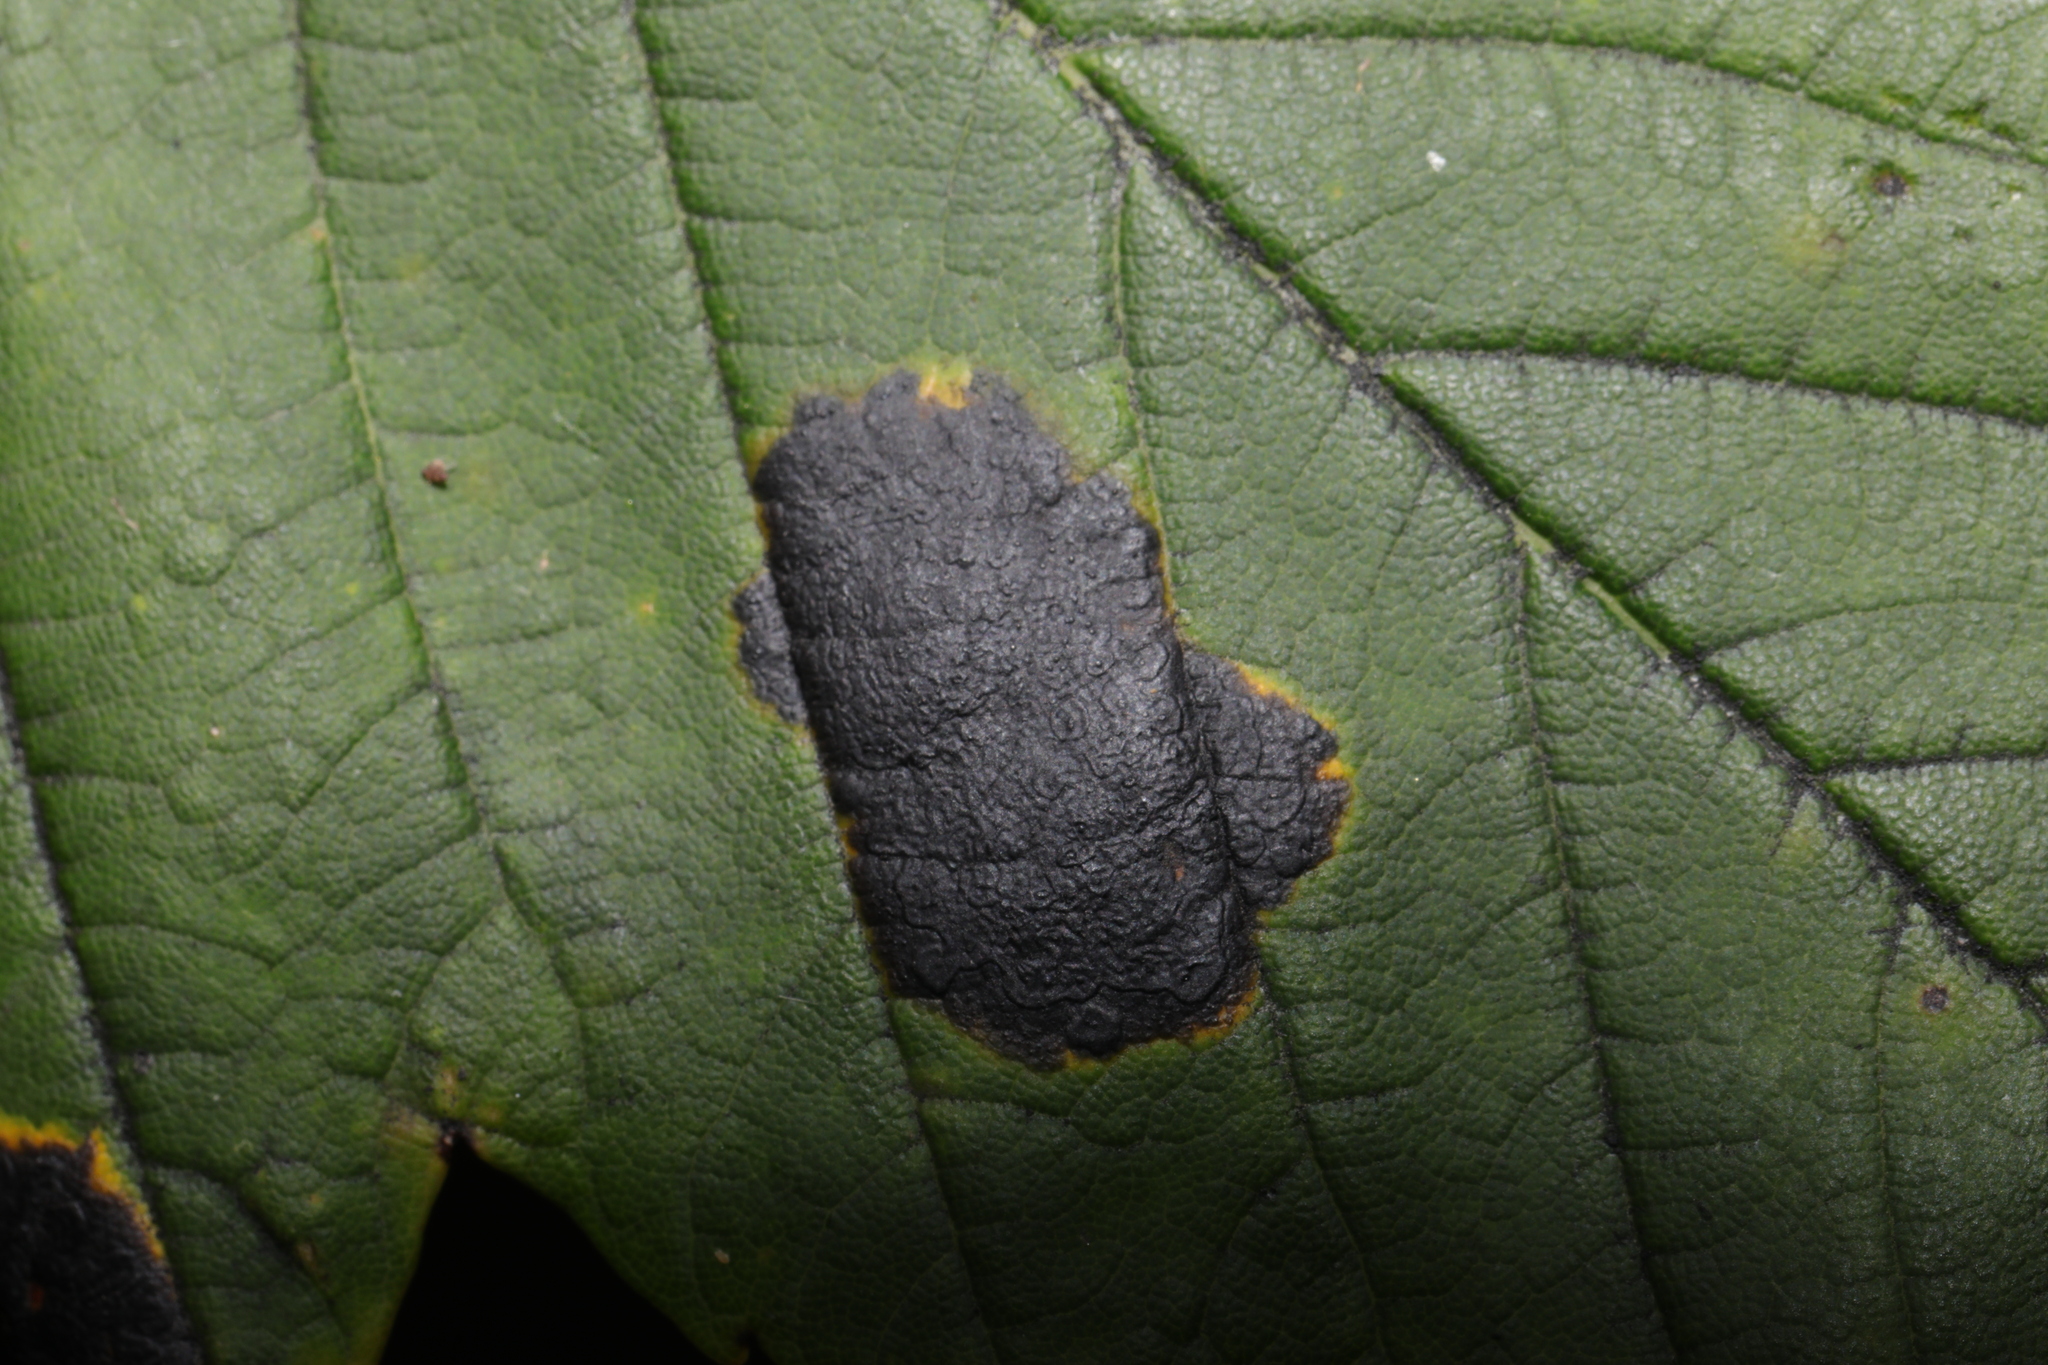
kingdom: Fungi
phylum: Ascomycota
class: Leotiomycetes
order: Rhytismatales
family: Rhytismataceae
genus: Rhytisma
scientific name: Rhytisma acerinum
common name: European tar spot
